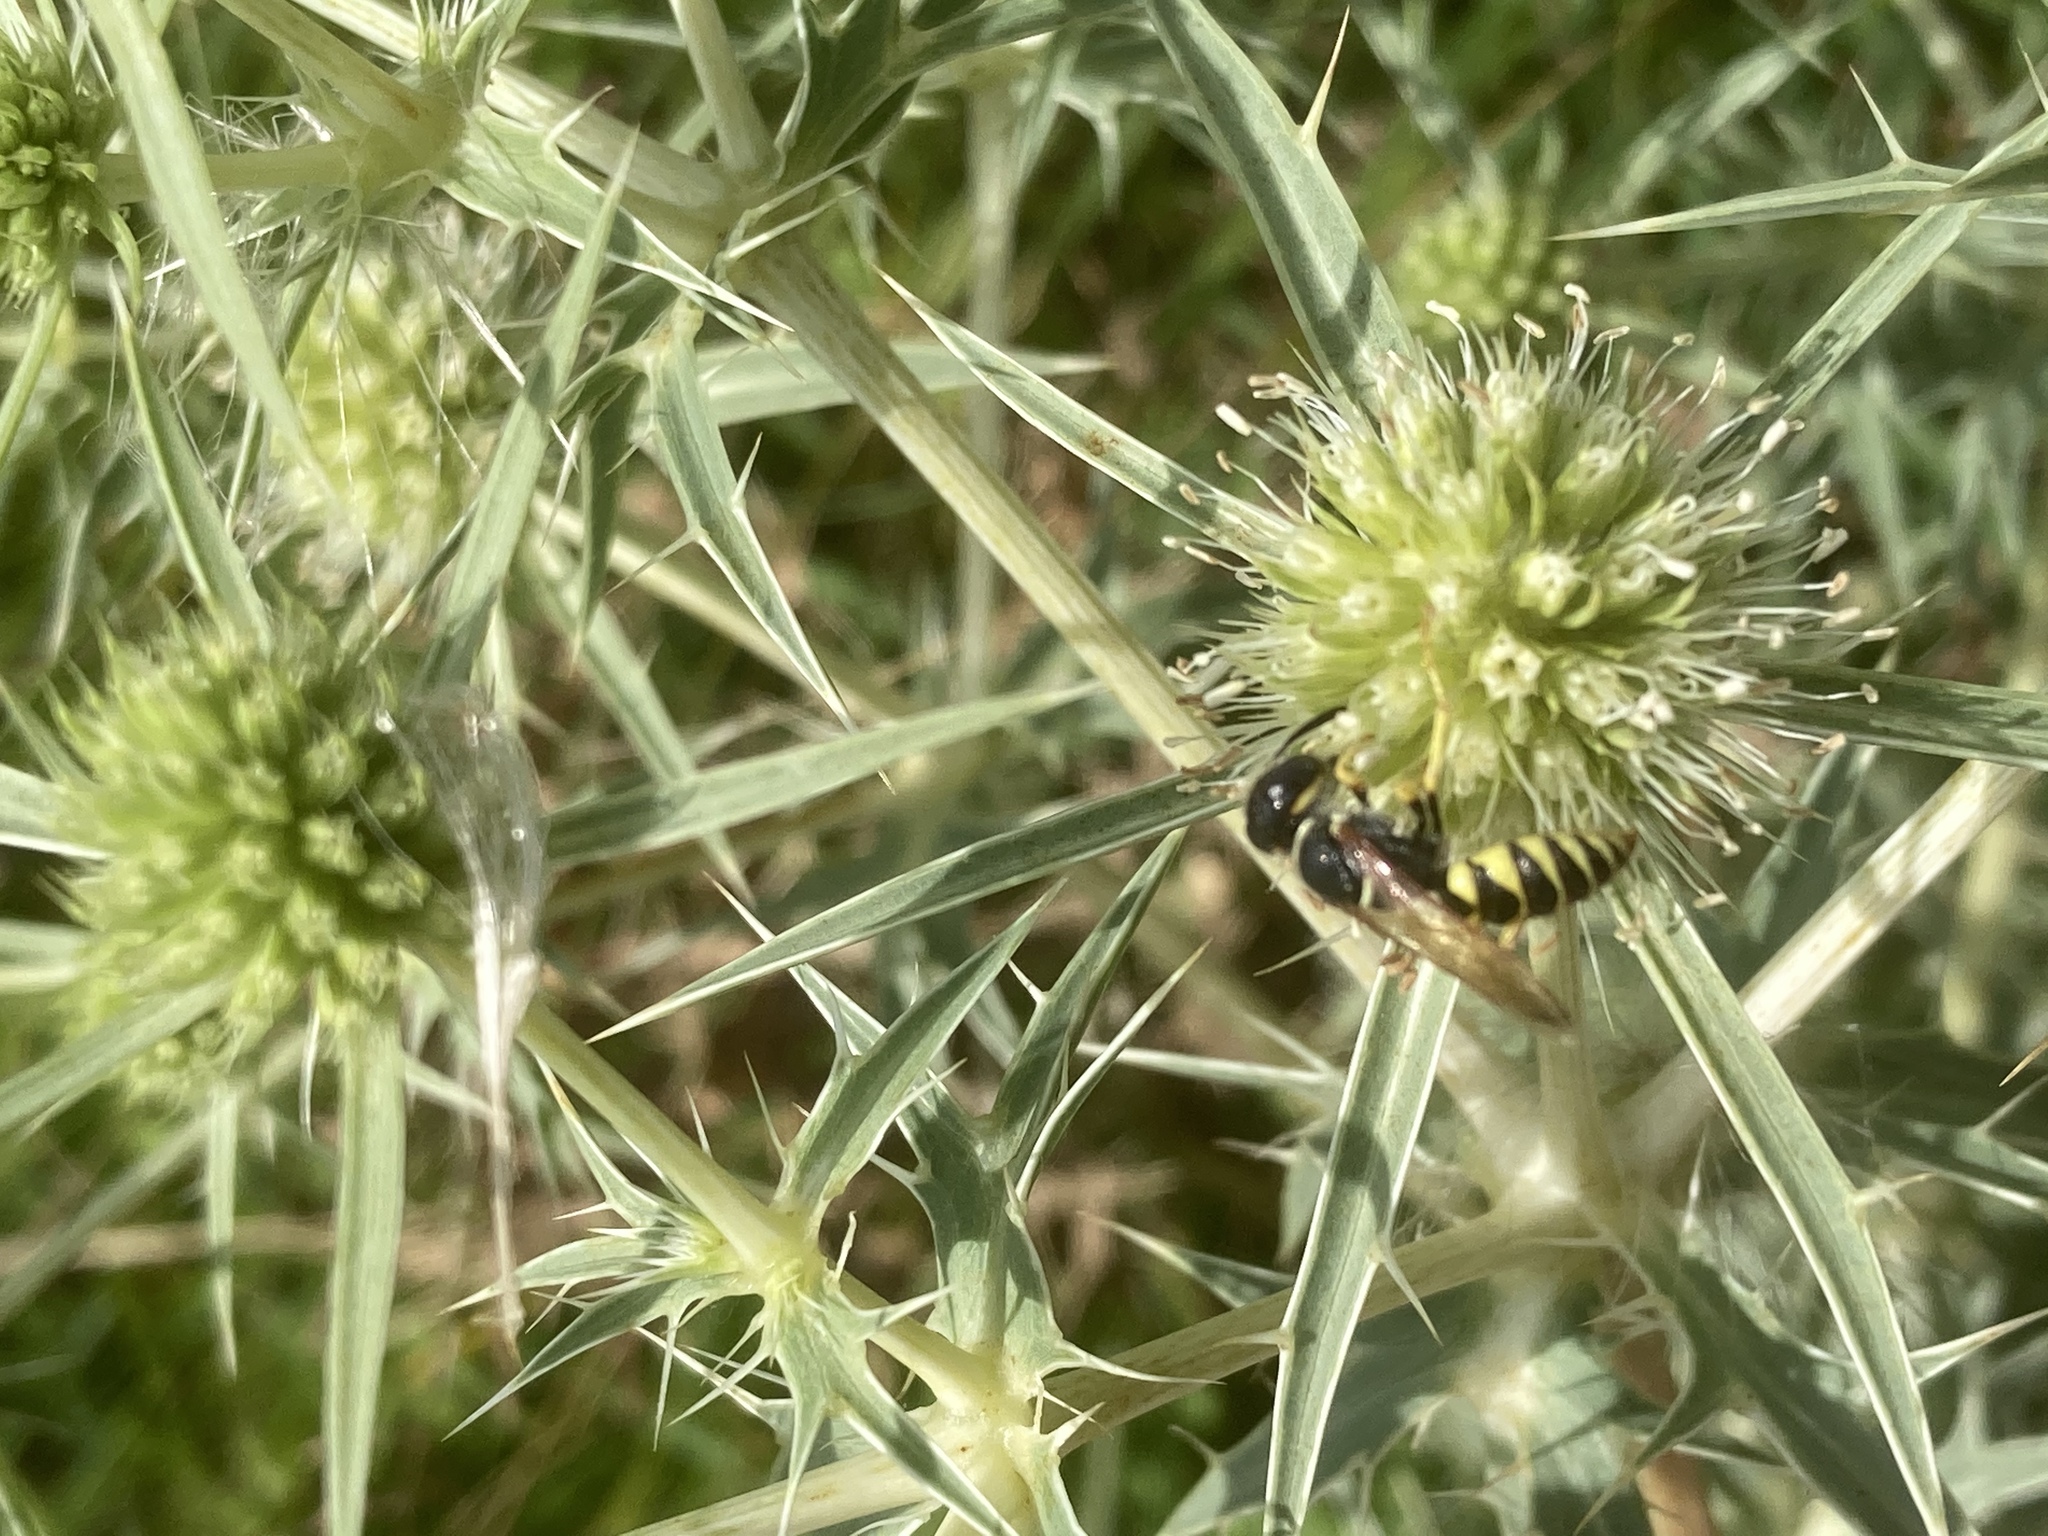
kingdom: Animalia
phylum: Arthropoda
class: Insecta
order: Hymenoptera
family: Crabronidae
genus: Philanthus
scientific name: Philanthus triangulum
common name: Bee wolf
